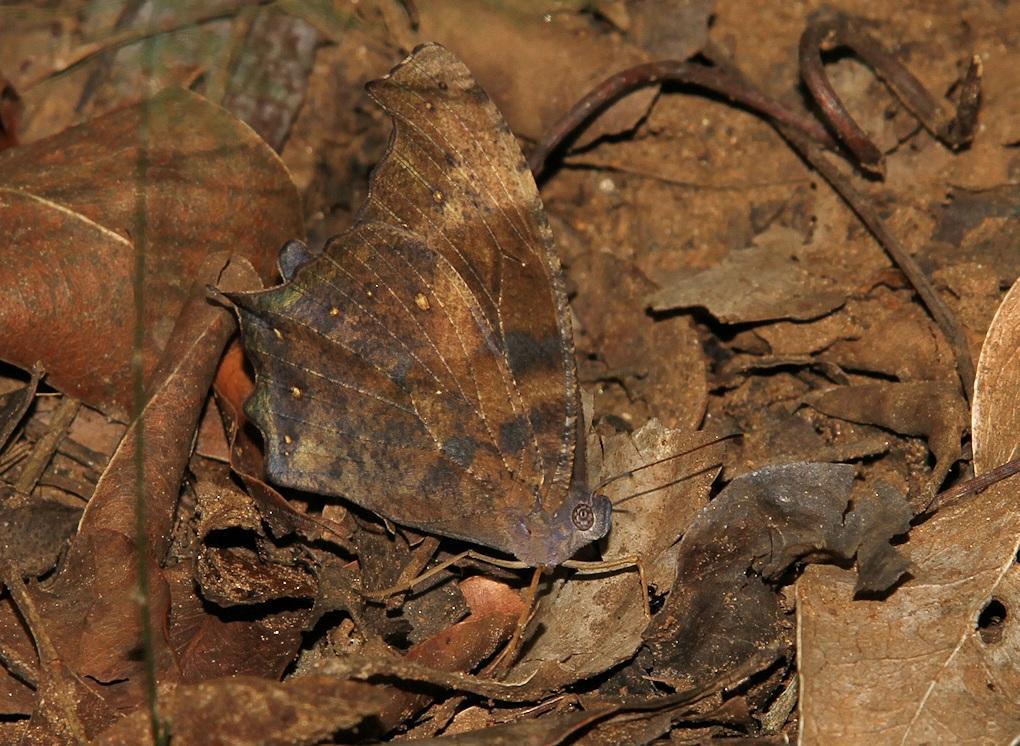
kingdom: Animalia
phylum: Arthropoda
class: Insecta
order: Lepidoptera
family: Nymphalidae
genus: Melanitis
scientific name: Melanitis leda
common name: Twilight brown
